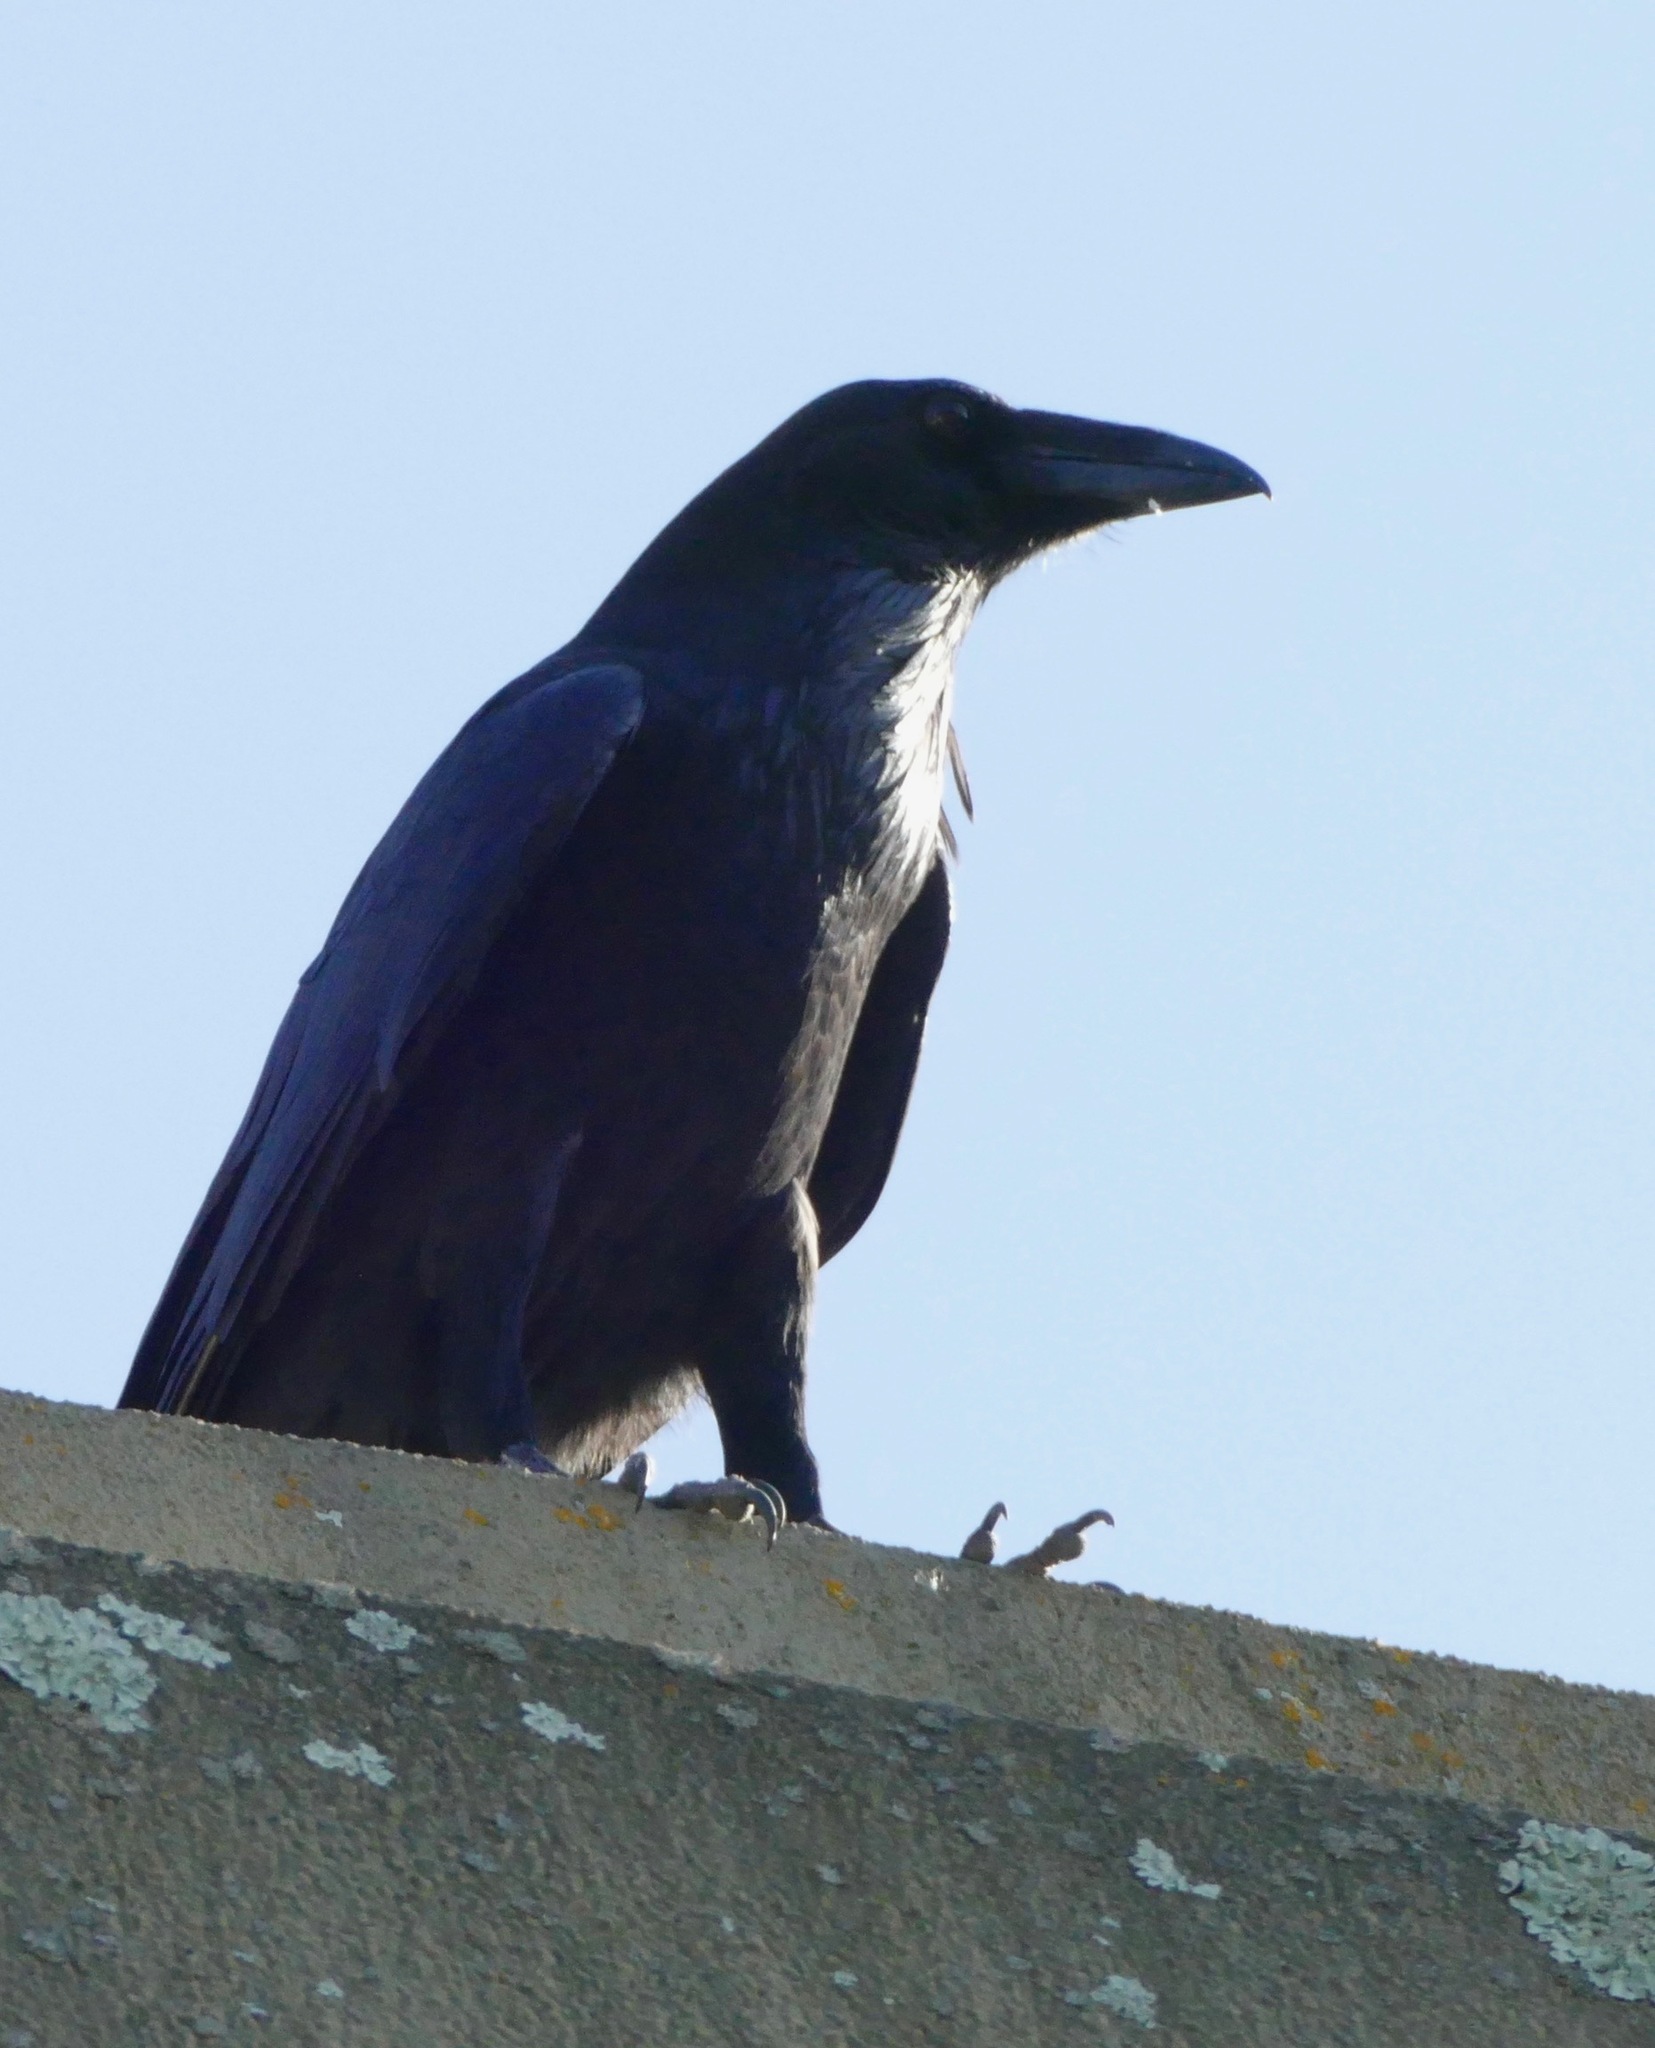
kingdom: Animalia
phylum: Chordata
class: Aves
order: Passeriformes
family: Corvidae
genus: Corvus
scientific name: Corvus corax
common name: Common raven
